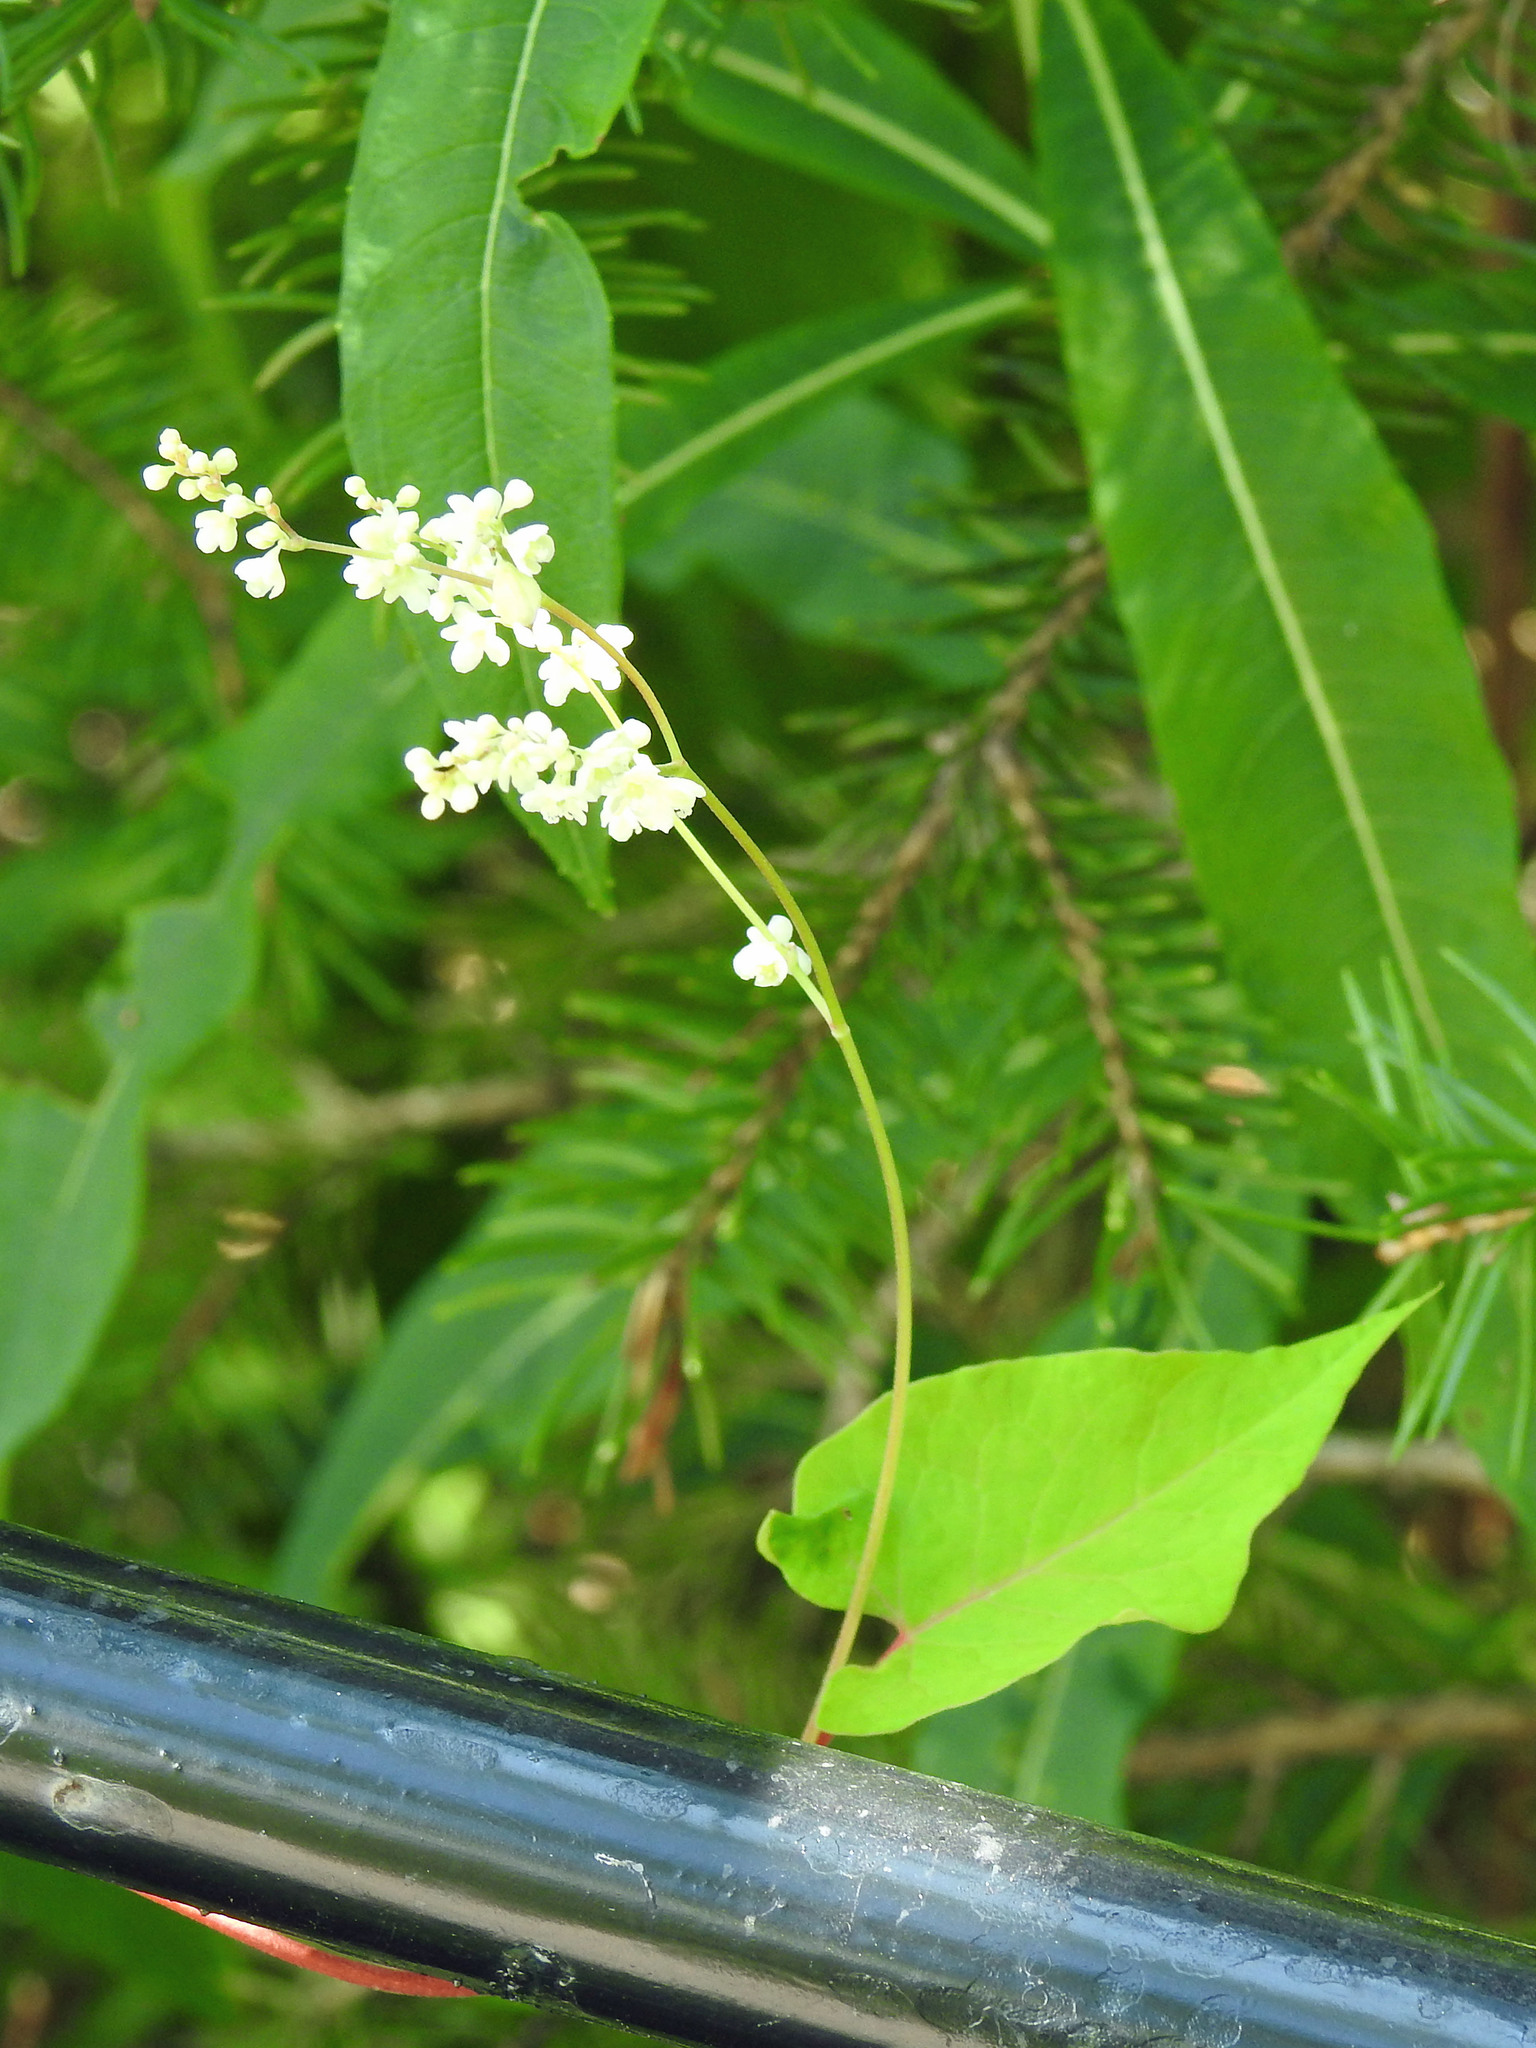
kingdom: Plantae
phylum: Tracheophyta
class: Magnoliopsida
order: Caryophyllales
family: Polygonaceae
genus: Parogonum
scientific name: Parogonum ciliinode
